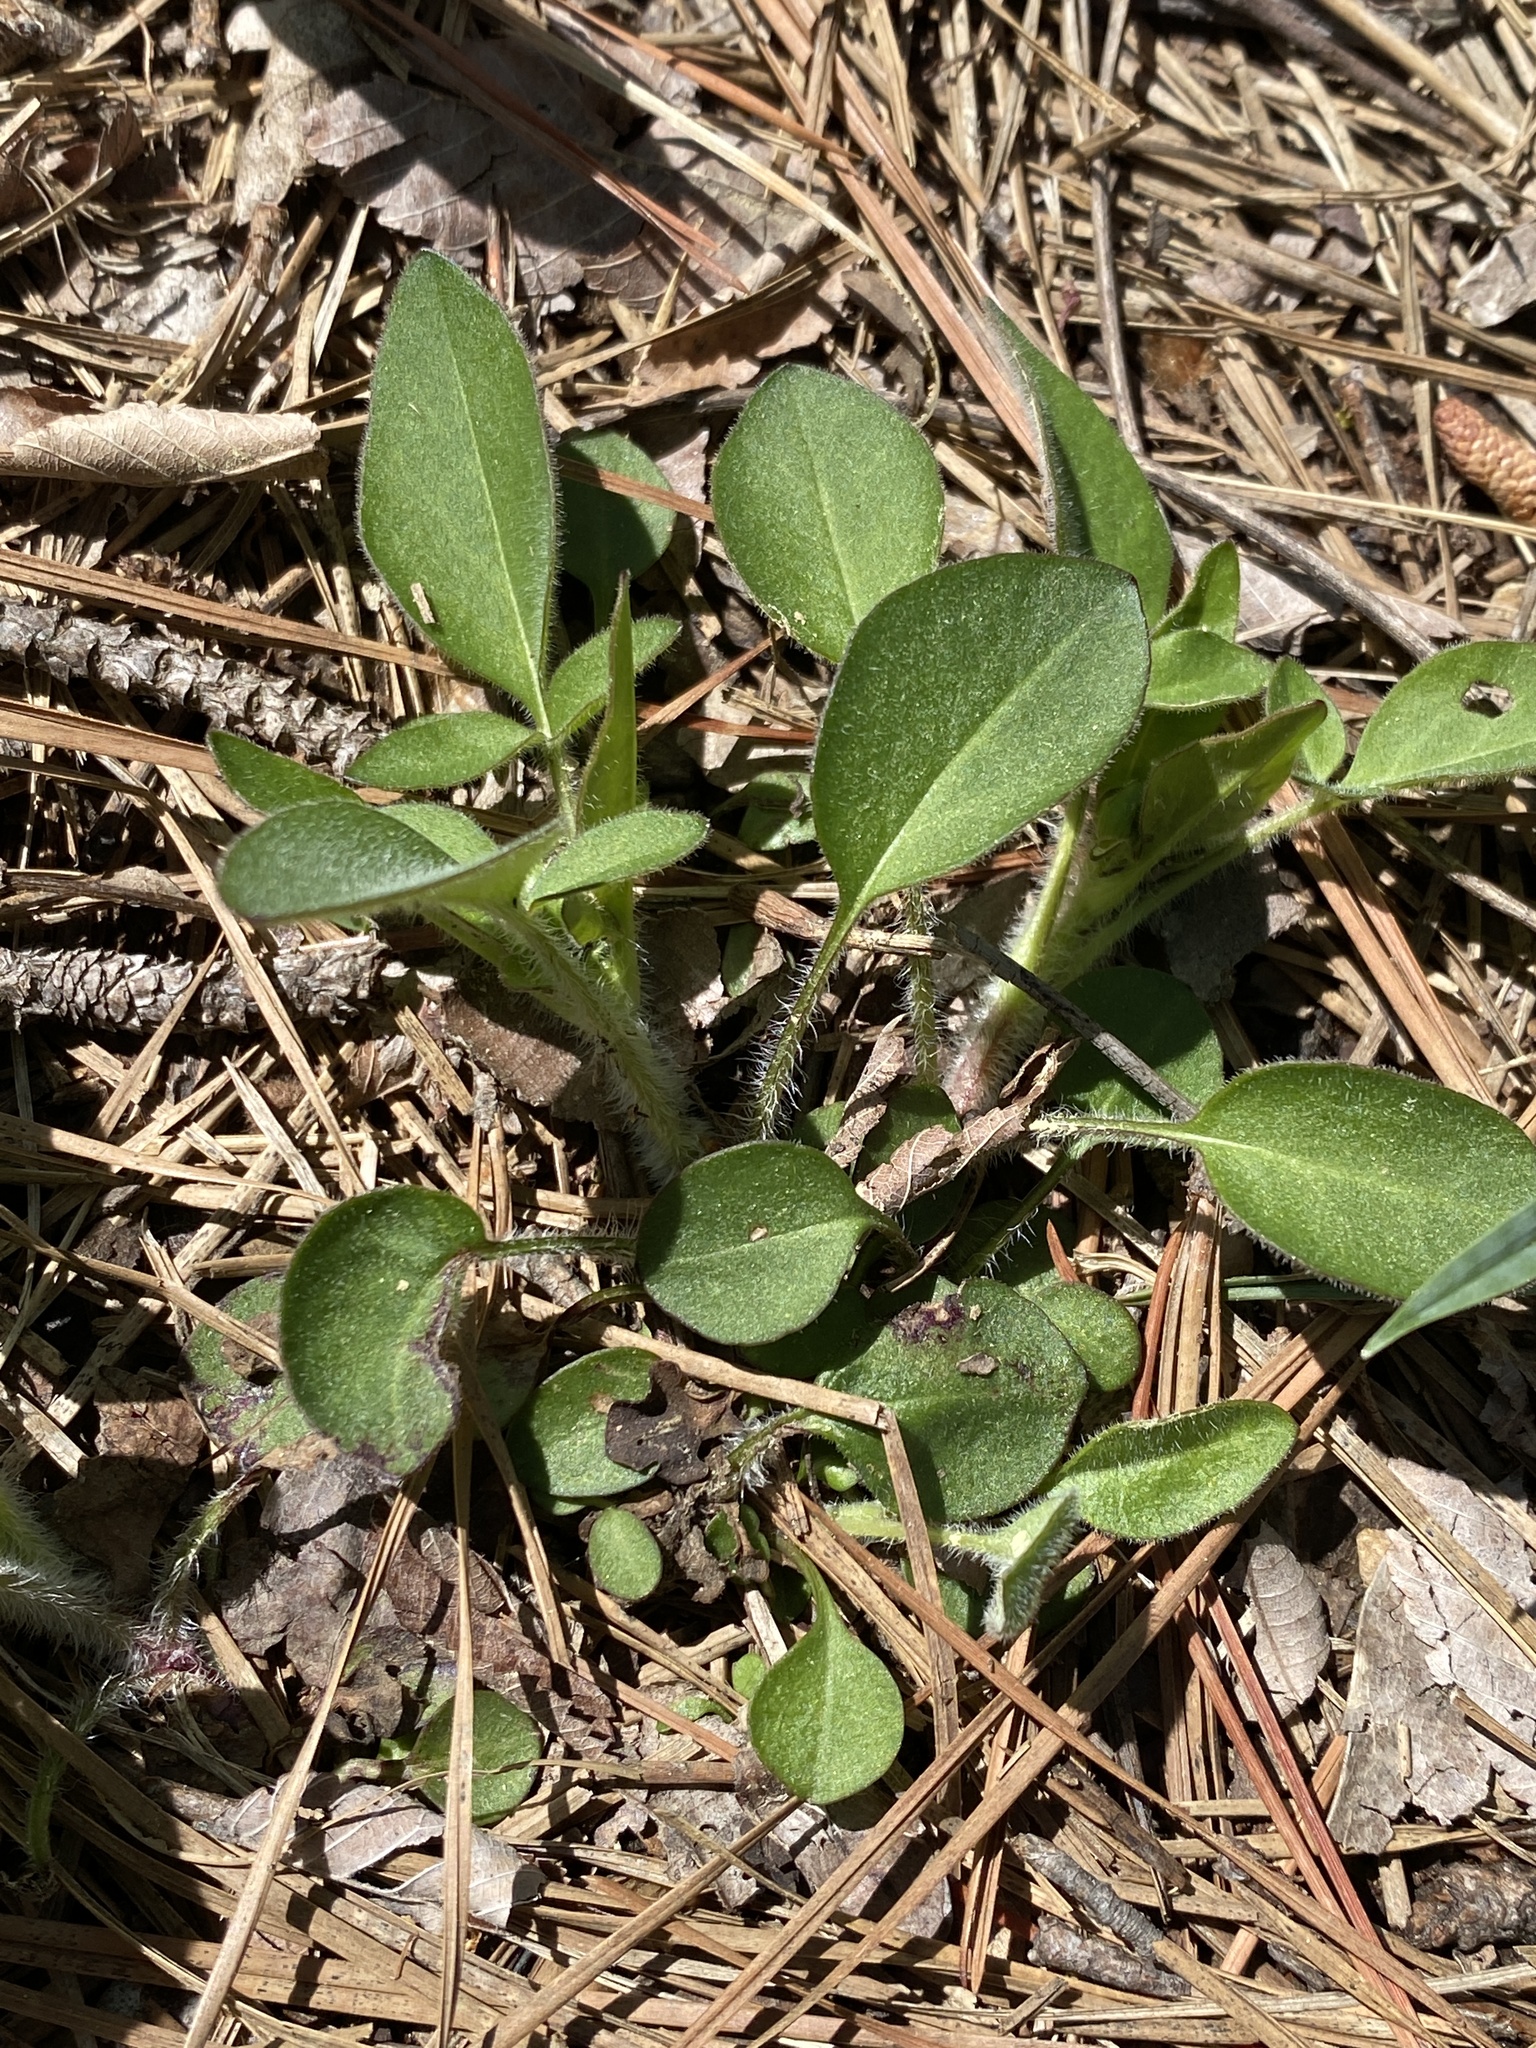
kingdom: Plantae
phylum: Tracheophyta
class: Magnoliopsida
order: Asterales
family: Asteraceae
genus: Coreopsis
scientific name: Coreopsis auriculata
